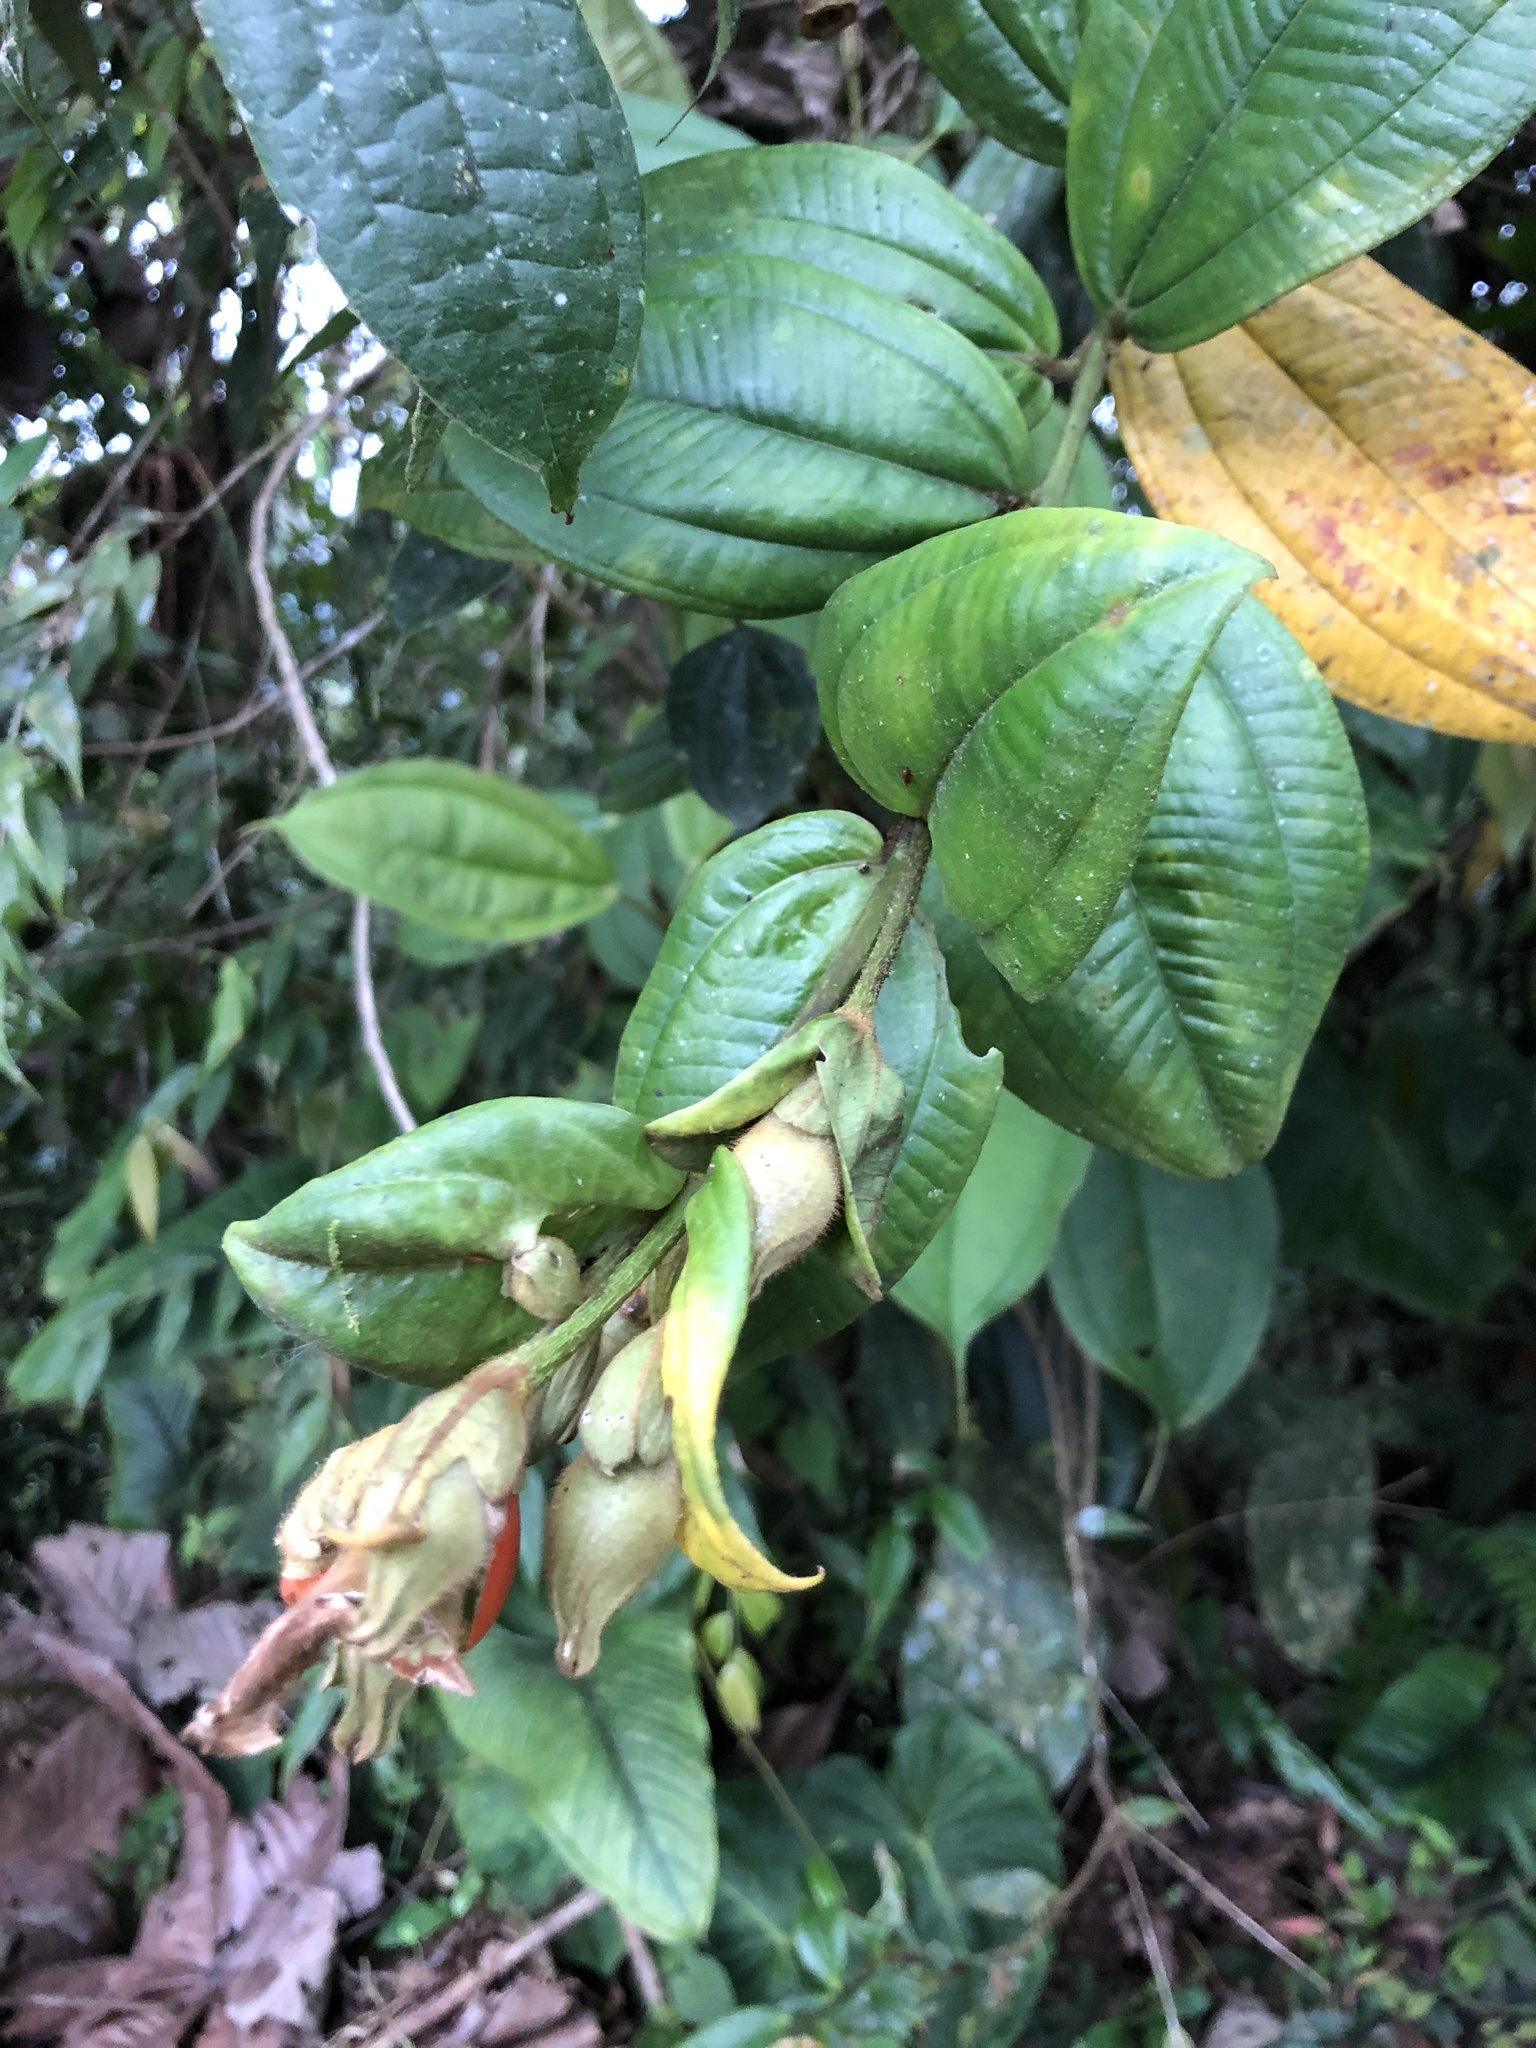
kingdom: Plantae
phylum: Tracheophyta
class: Magnoliopsida
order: Myrtales
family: Melastomataceae
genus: Meriania
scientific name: Meriania tomentosa
